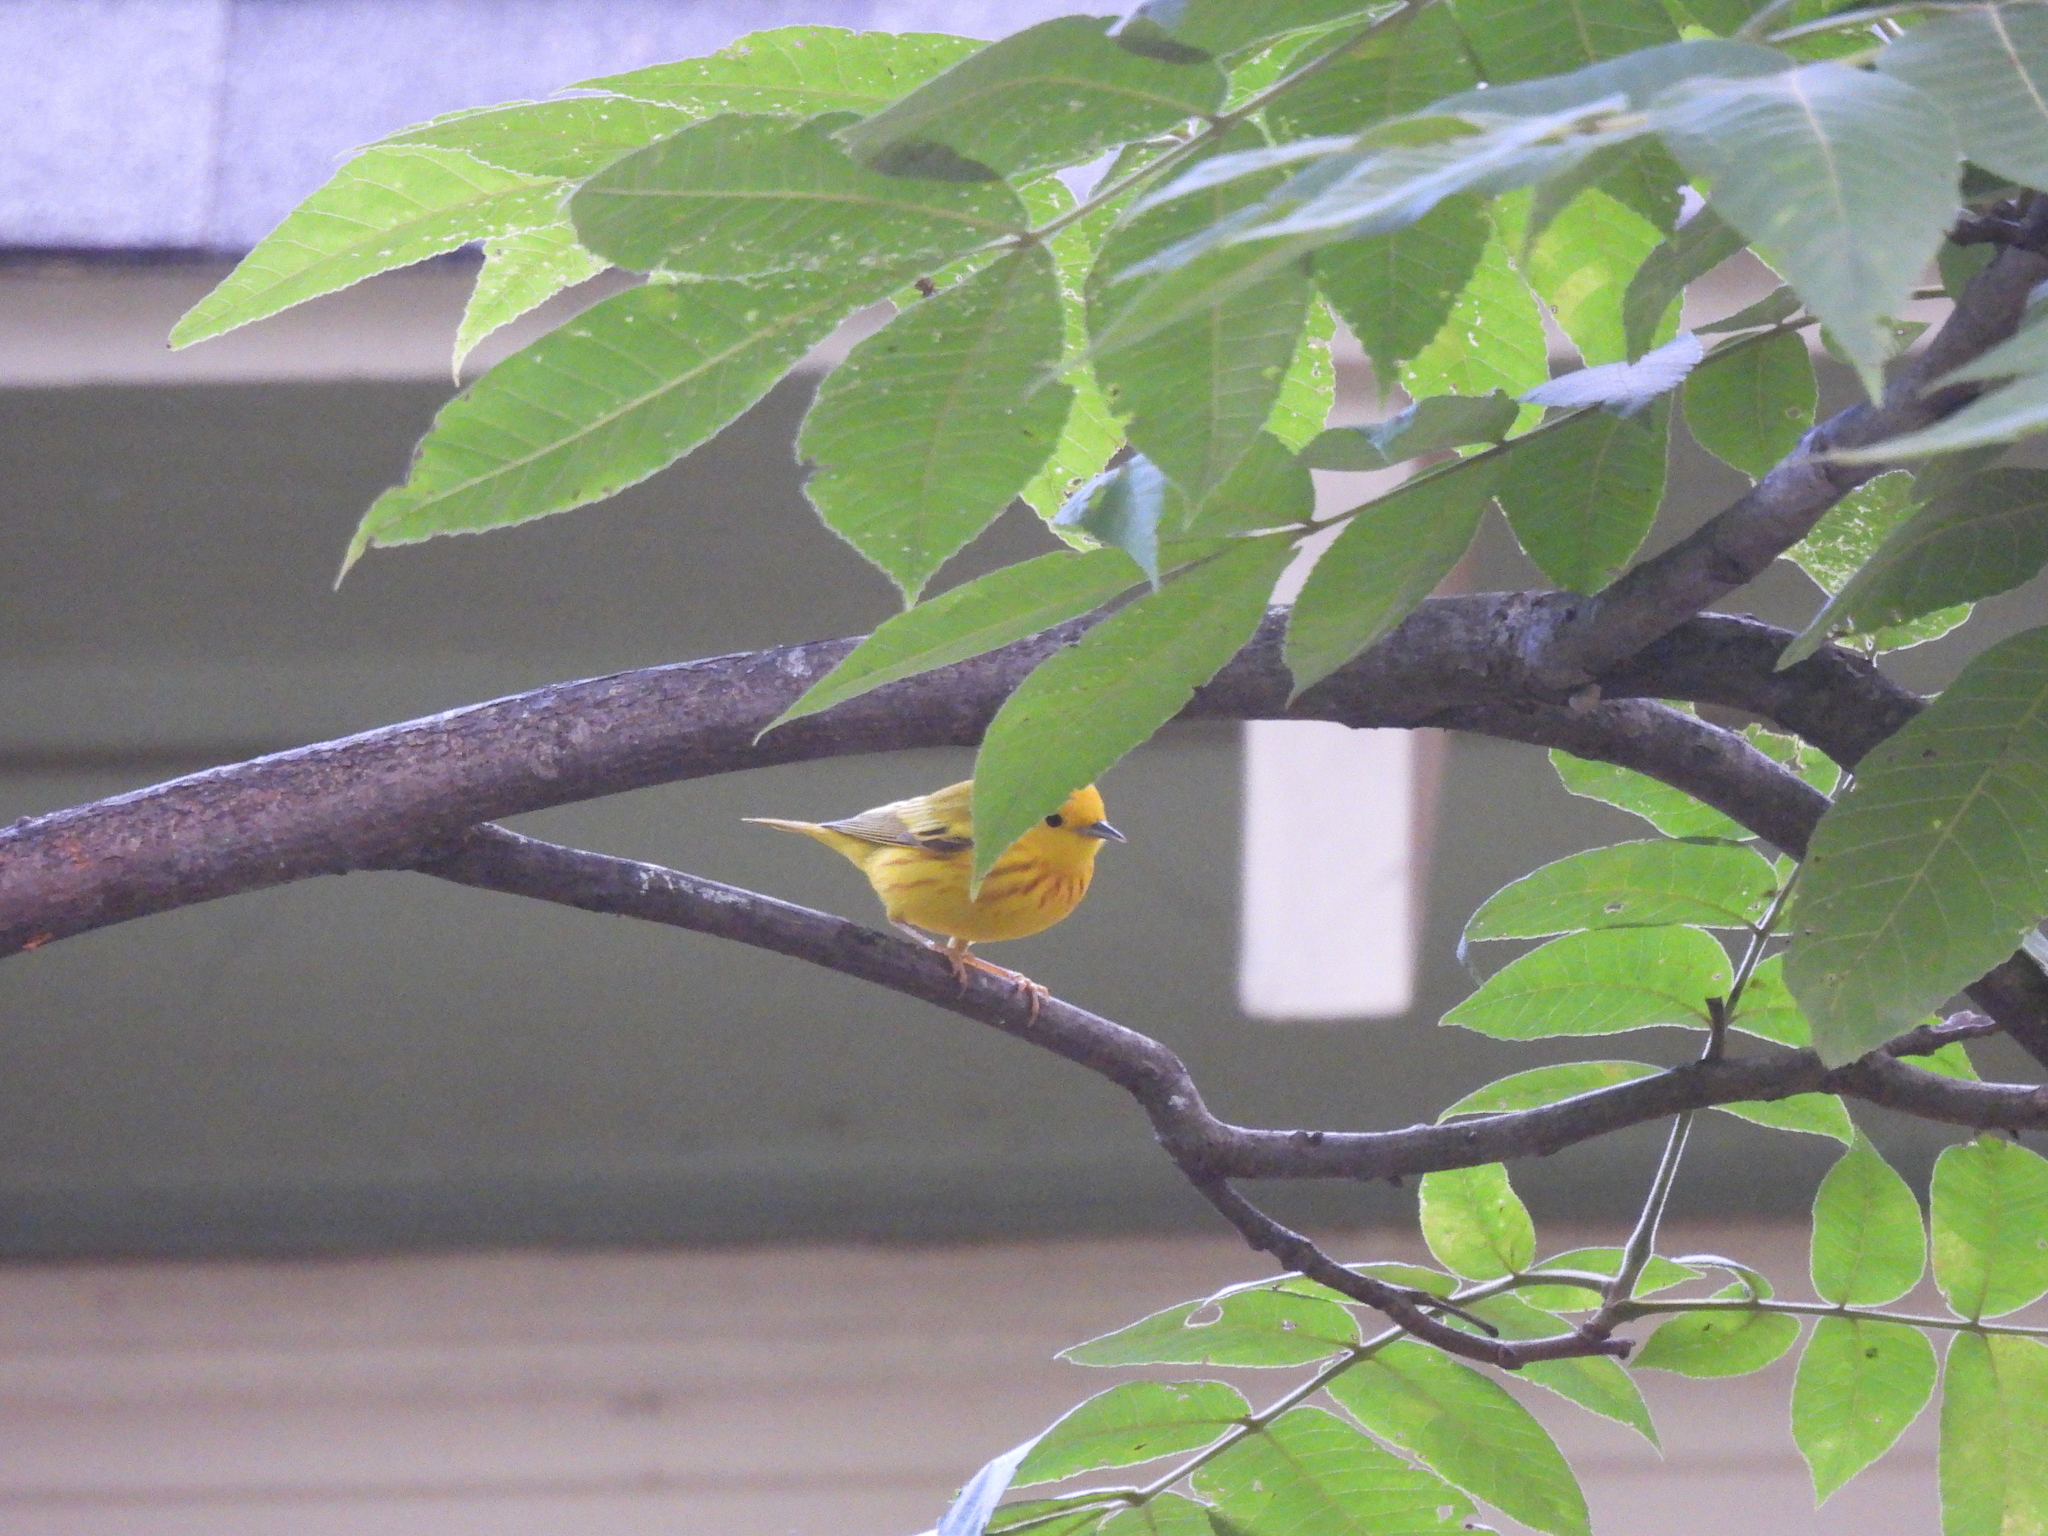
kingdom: Animalia
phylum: Chordata
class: Aves
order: Passeriformes
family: Parulidae
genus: Setophaga
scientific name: Setophaga petechia
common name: Yellow warbler
